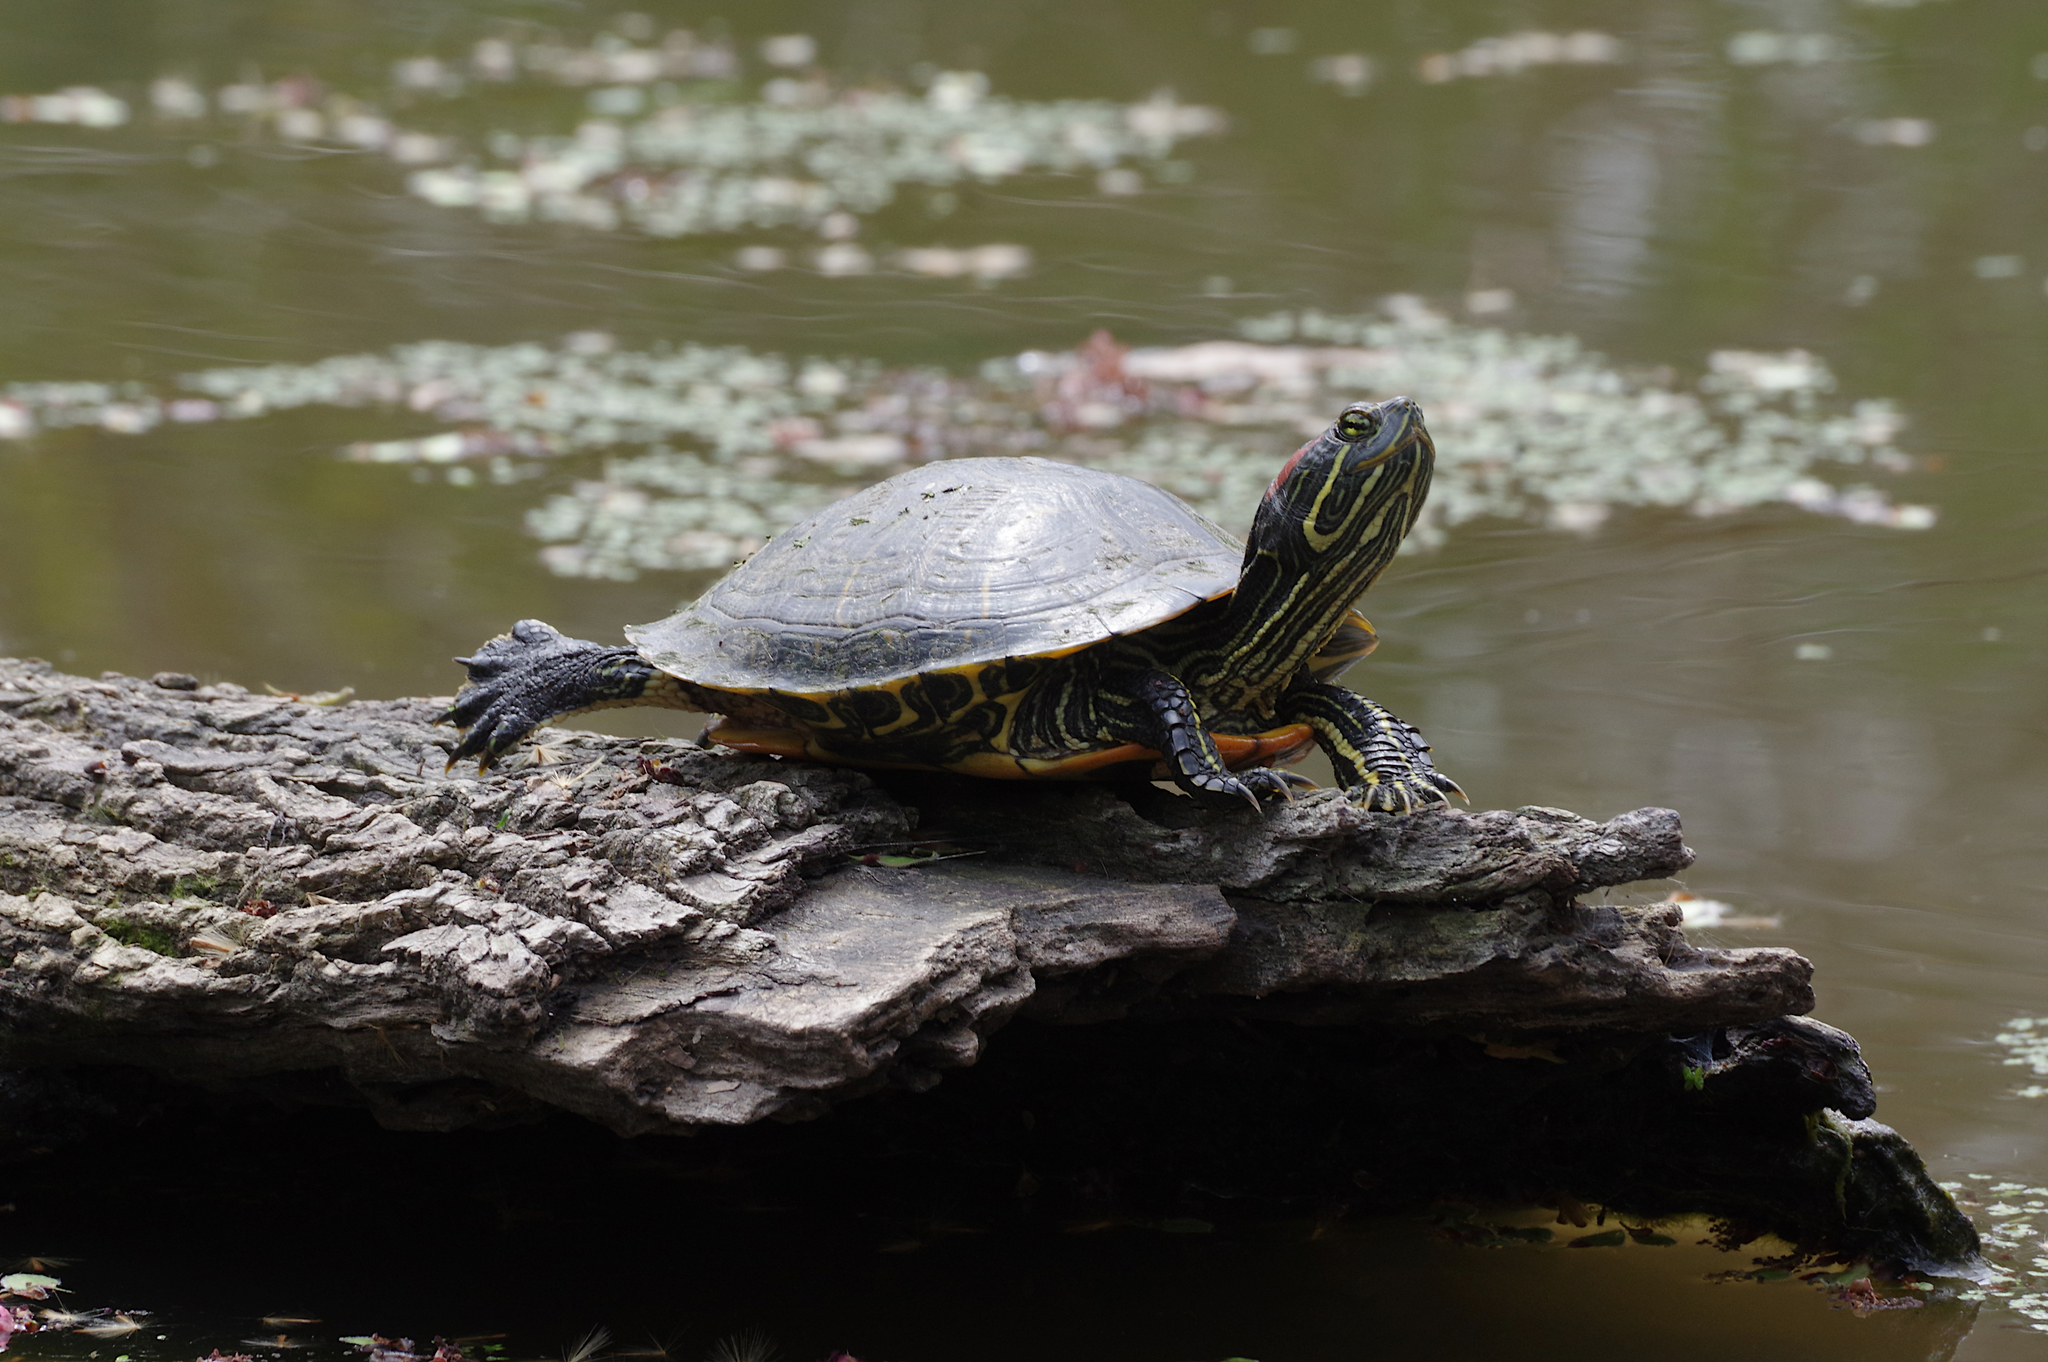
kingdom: Animalia
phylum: Chordata
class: Testudines
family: Emydidae
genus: Trachemys
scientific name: Trachemys scripta
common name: Slider
